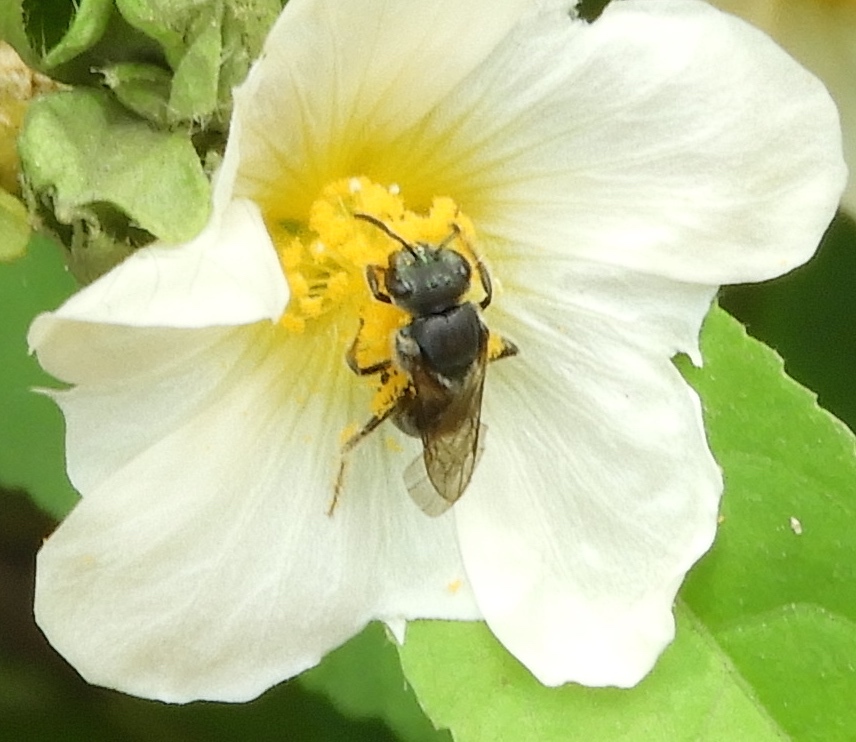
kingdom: Animalia
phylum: Arthropoda
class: Insecta
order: Hymenoptera
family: Halictidae
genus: Augochlora
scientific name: Augochlora nigrocyanea
